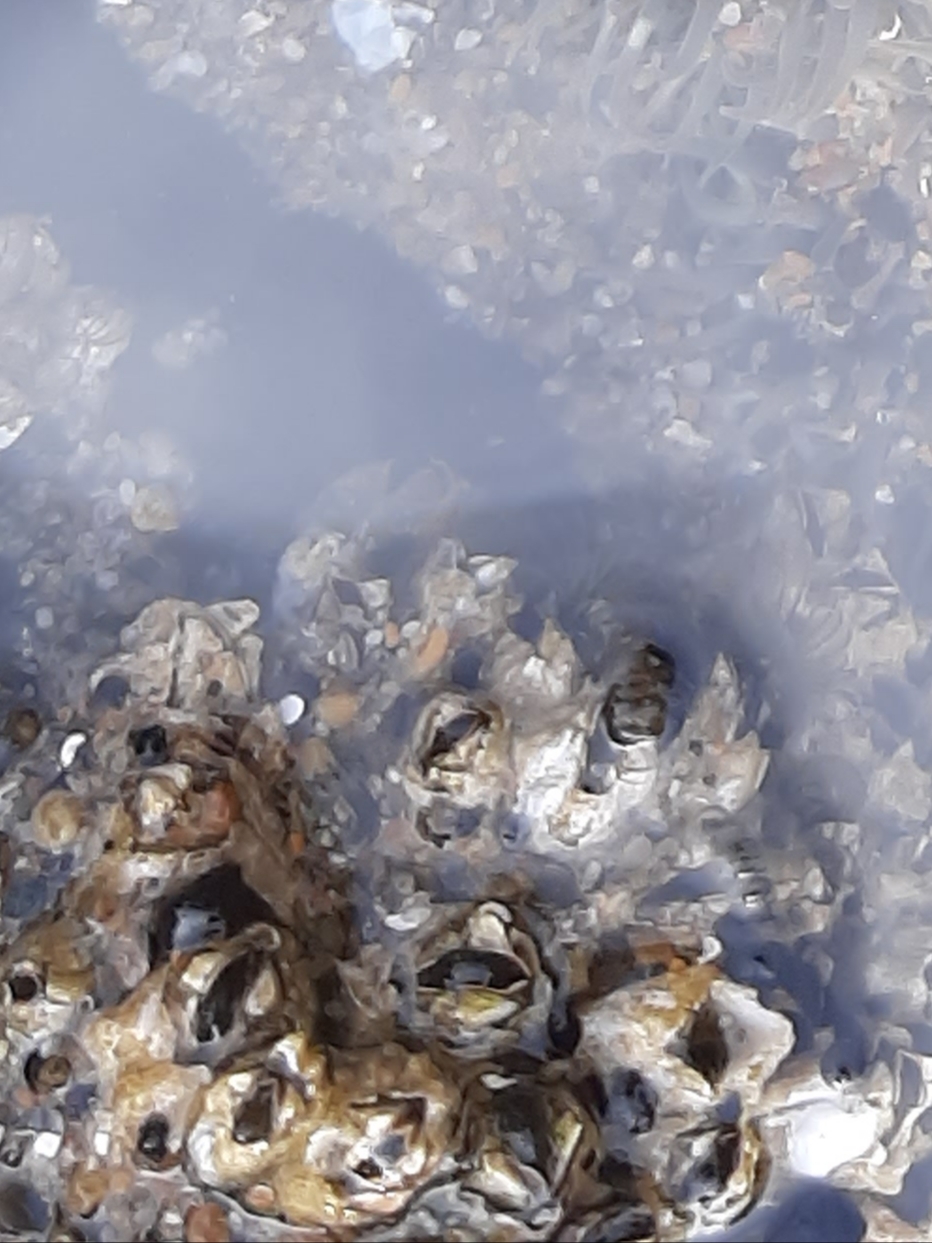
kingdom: Animalia
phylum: Arthropoda
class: Maxillopoda
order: Sessilia
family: Balanidae
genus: Balanus
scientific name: Balanus glandula
